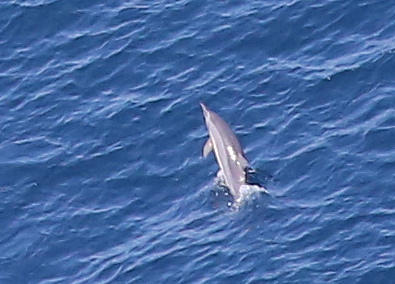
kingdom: Animalia
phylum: Chordata
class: Mammalia
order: Cetacea
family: Delphinidae
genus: Stenella
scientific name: Stenella longirostris
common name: Spinner dolphin
